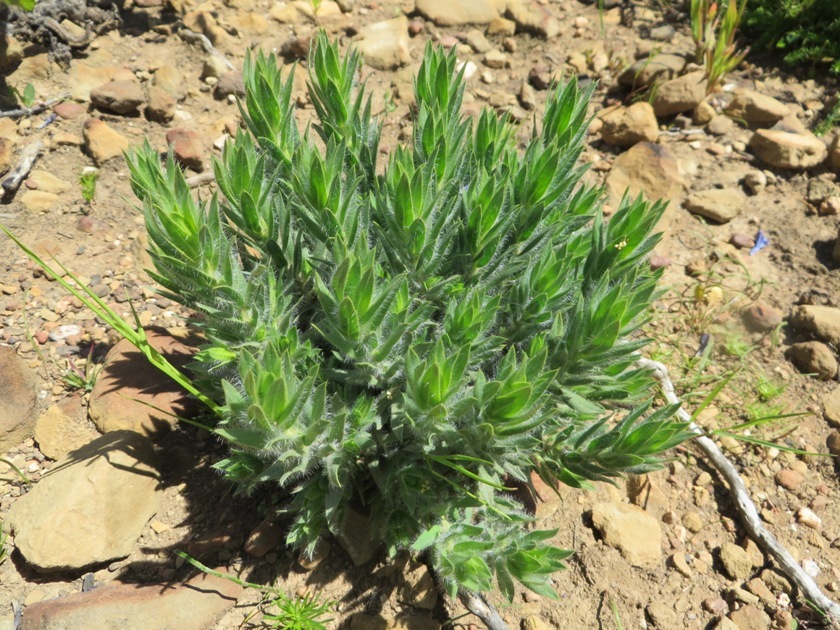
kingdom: Plantae
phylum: Tracheophyta
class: Magnoliopsida
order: Fabales
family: Fabaceae
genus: Xiphotheca
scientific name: Xiphotheca lanceolata
